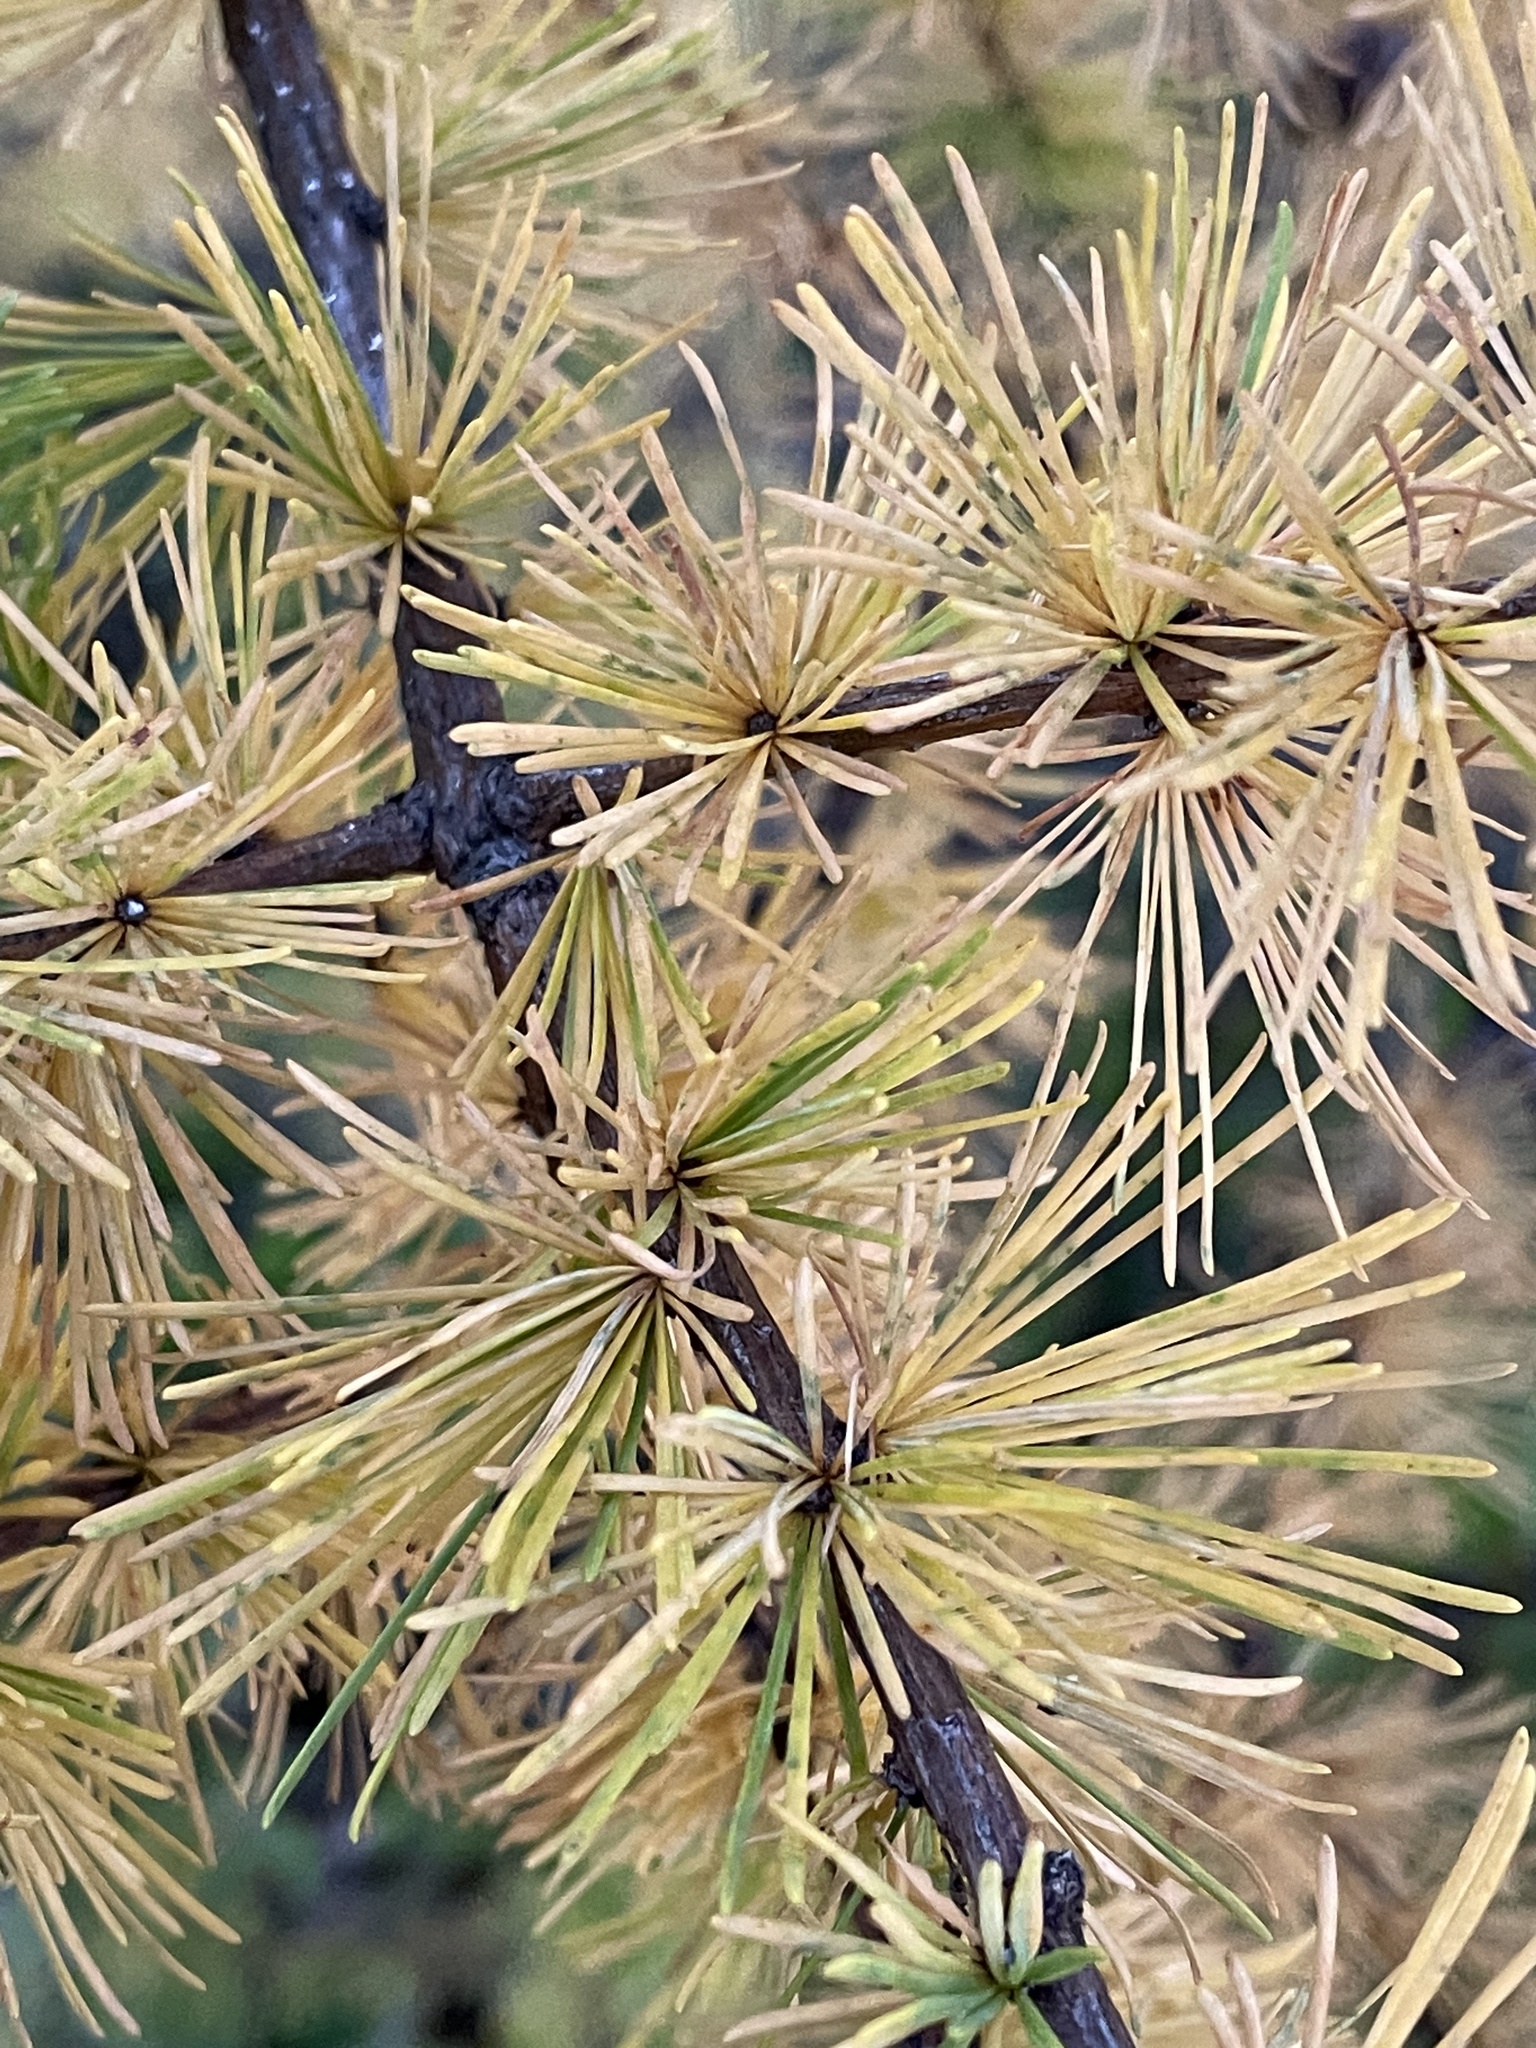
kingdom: Plantae
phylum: Tracheophyta
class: Pinopsida
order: Pinales
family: Pinaceae
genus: Larix
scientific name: Larix laricina
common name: American larch
